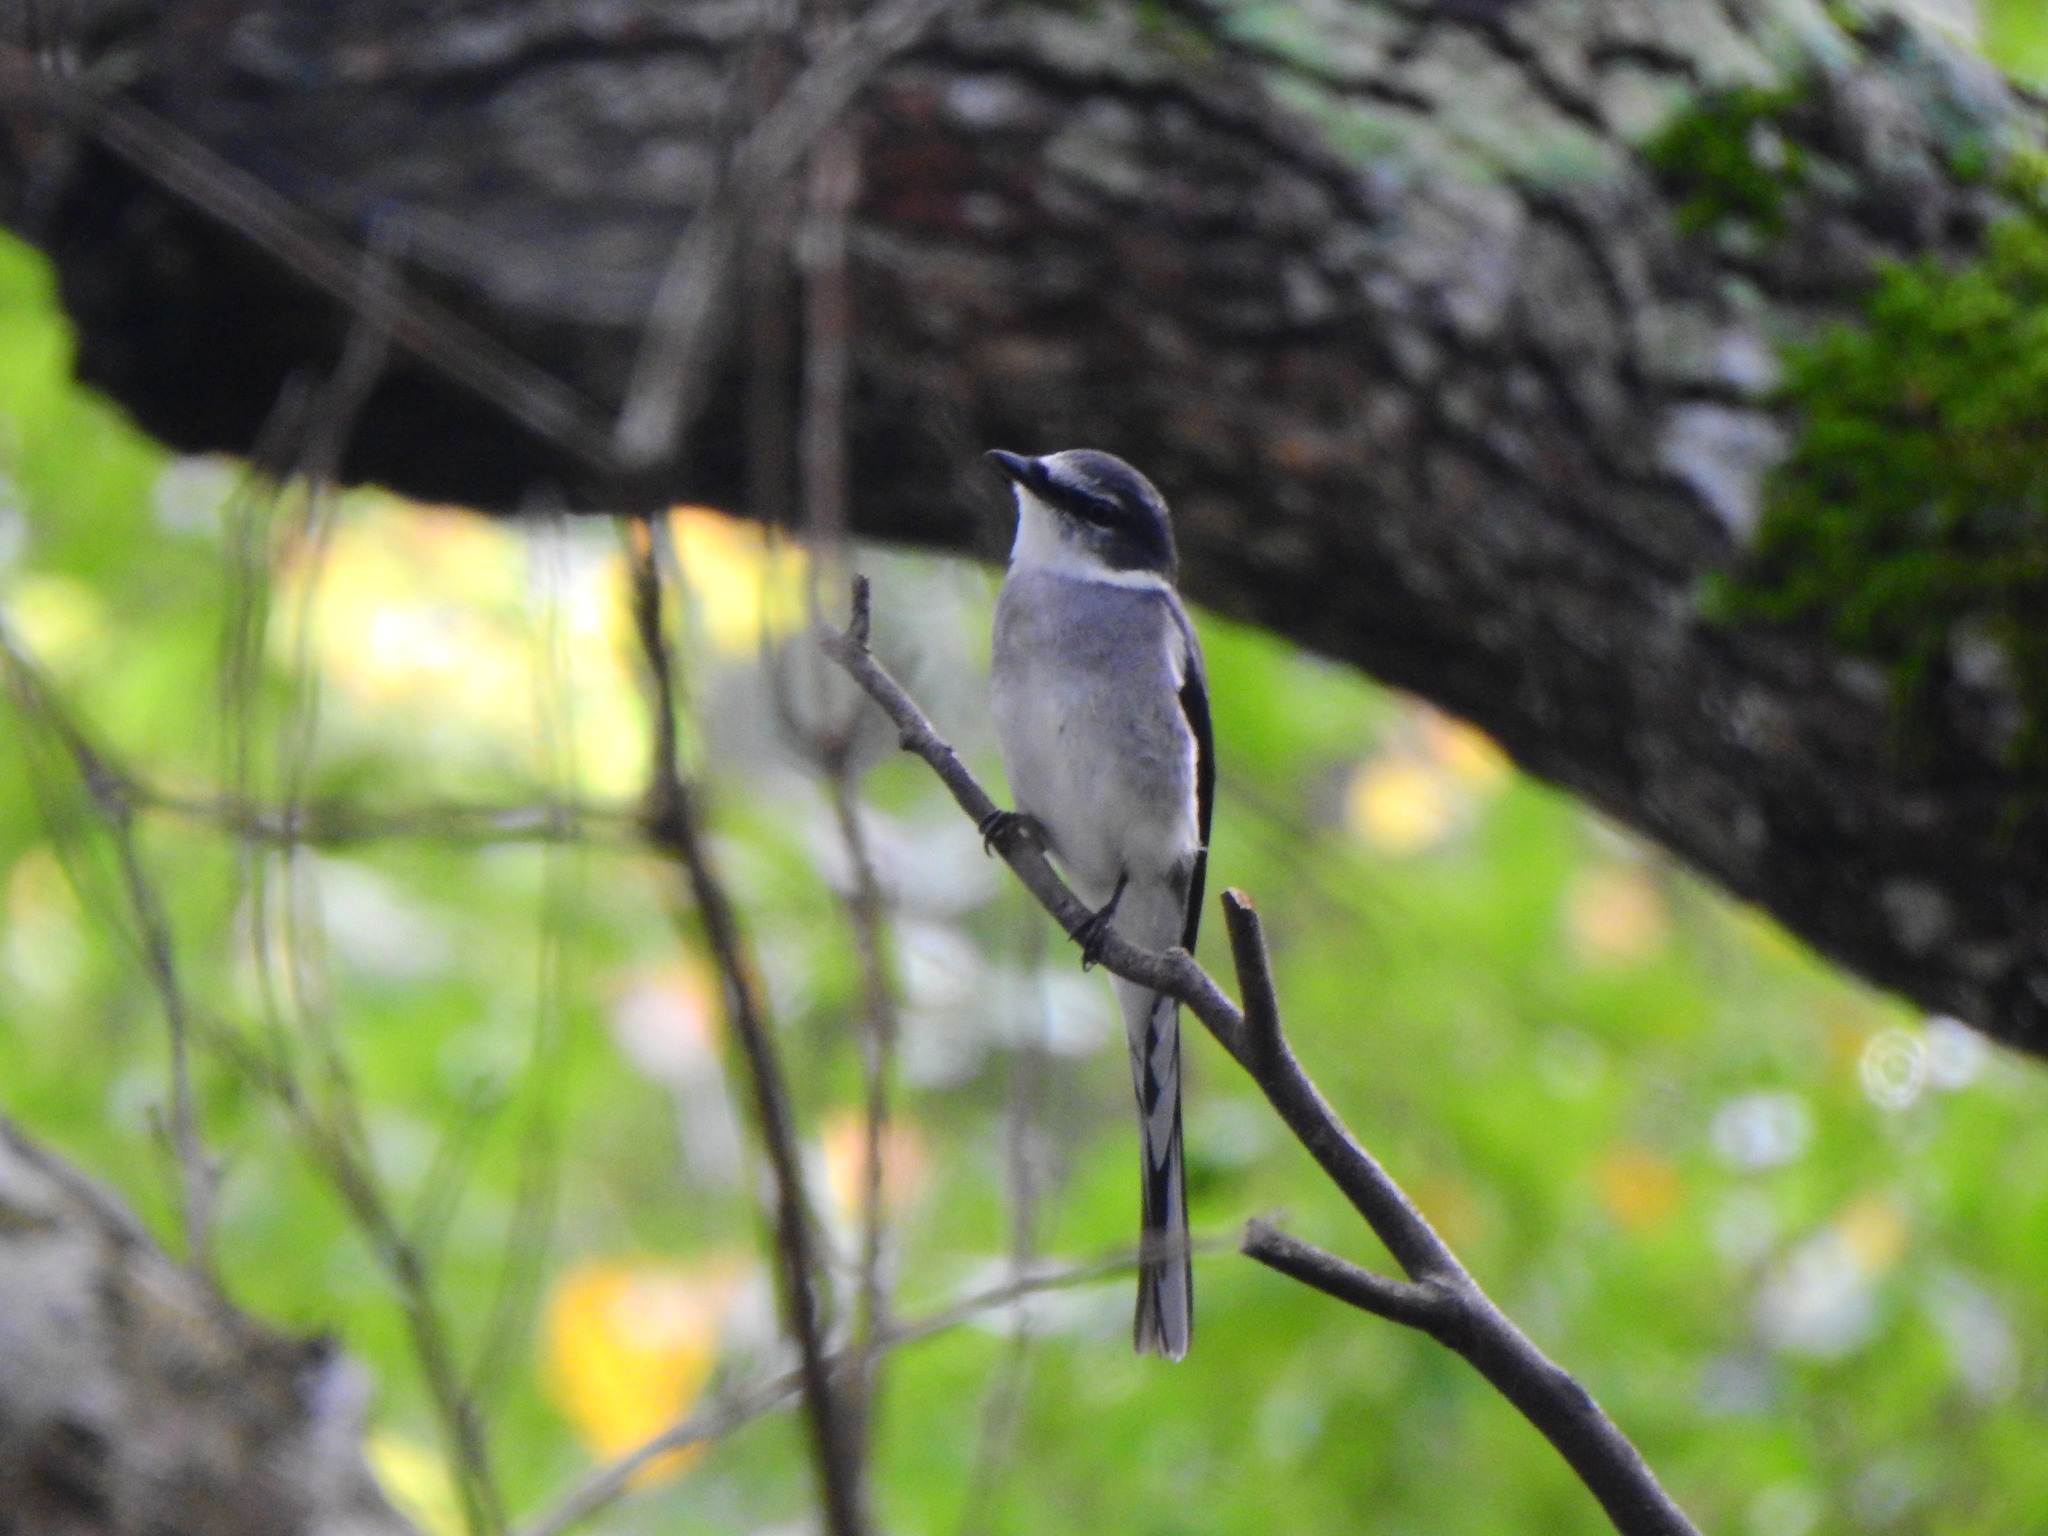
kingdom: Animalia
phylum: Chordata
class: Aves
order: Passeriformes
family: Campephagidae
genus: Pericrocotus
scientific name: Pericrocotus tegimae
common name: Ryukyu minivet
